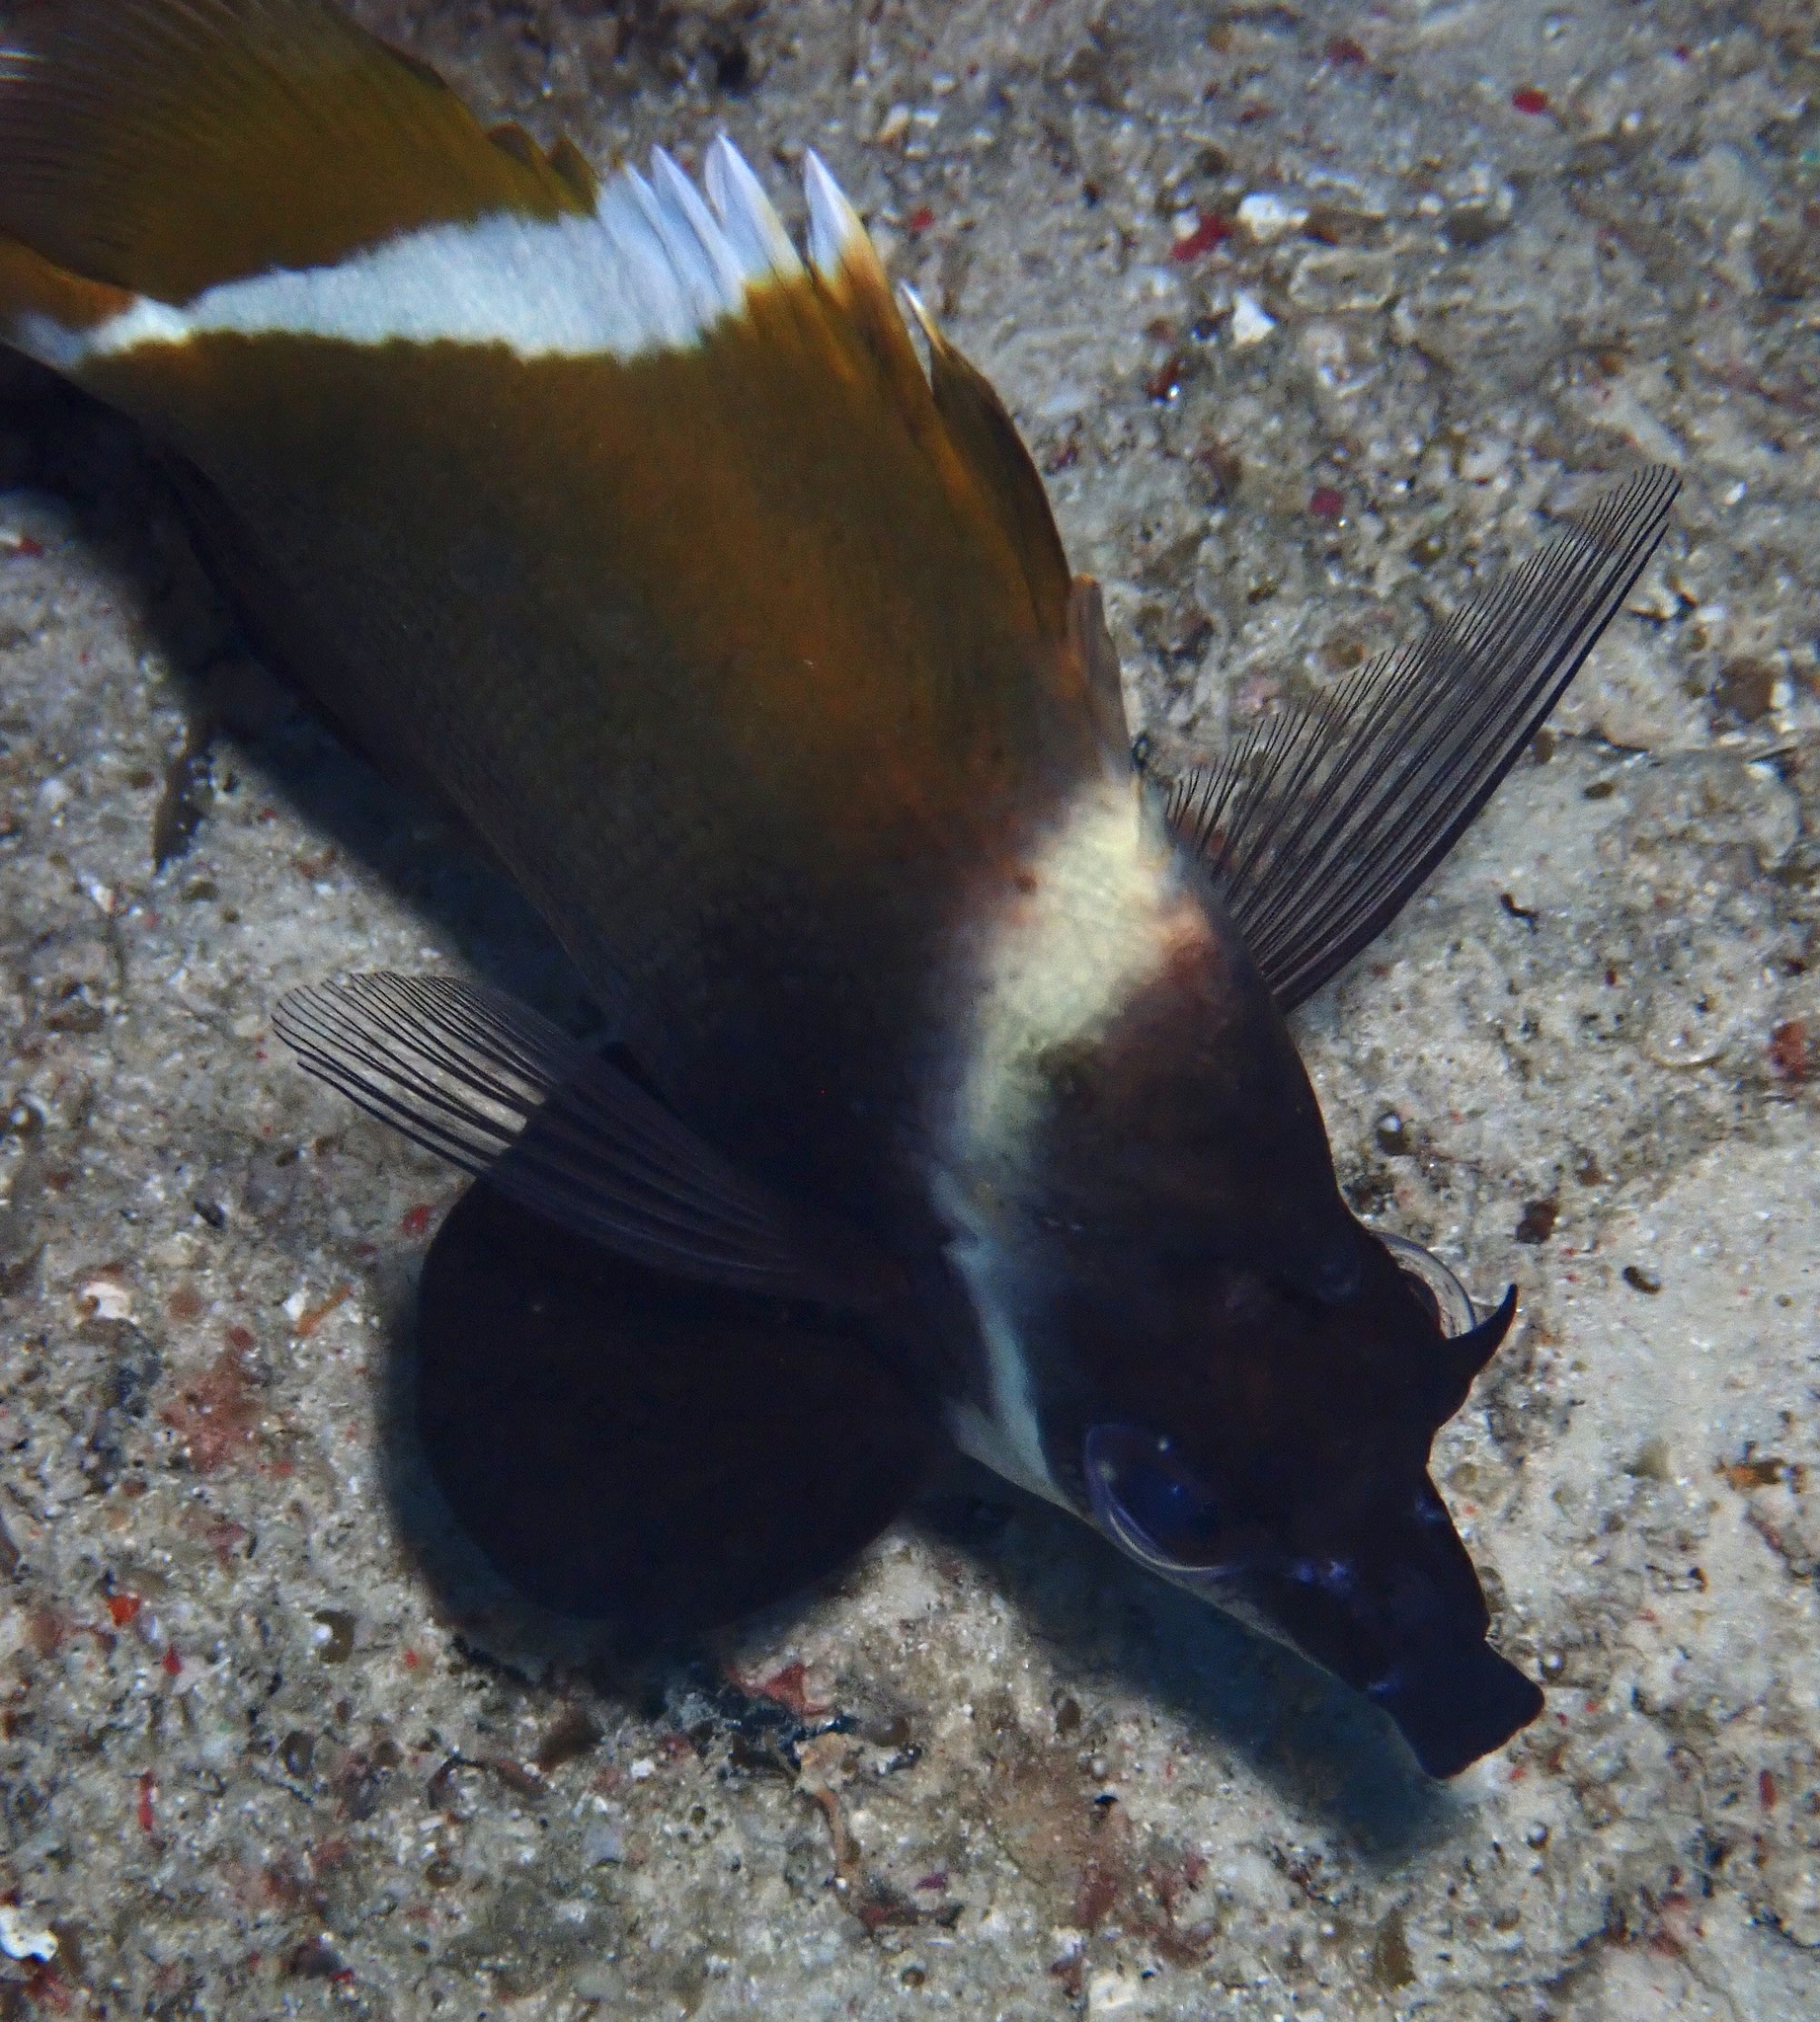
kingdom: Animalia
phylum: Chordata
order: Perciformes
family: Chaetodontidae
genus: Heniochus
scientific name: Heniochus varius
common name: Horned bannerfish
